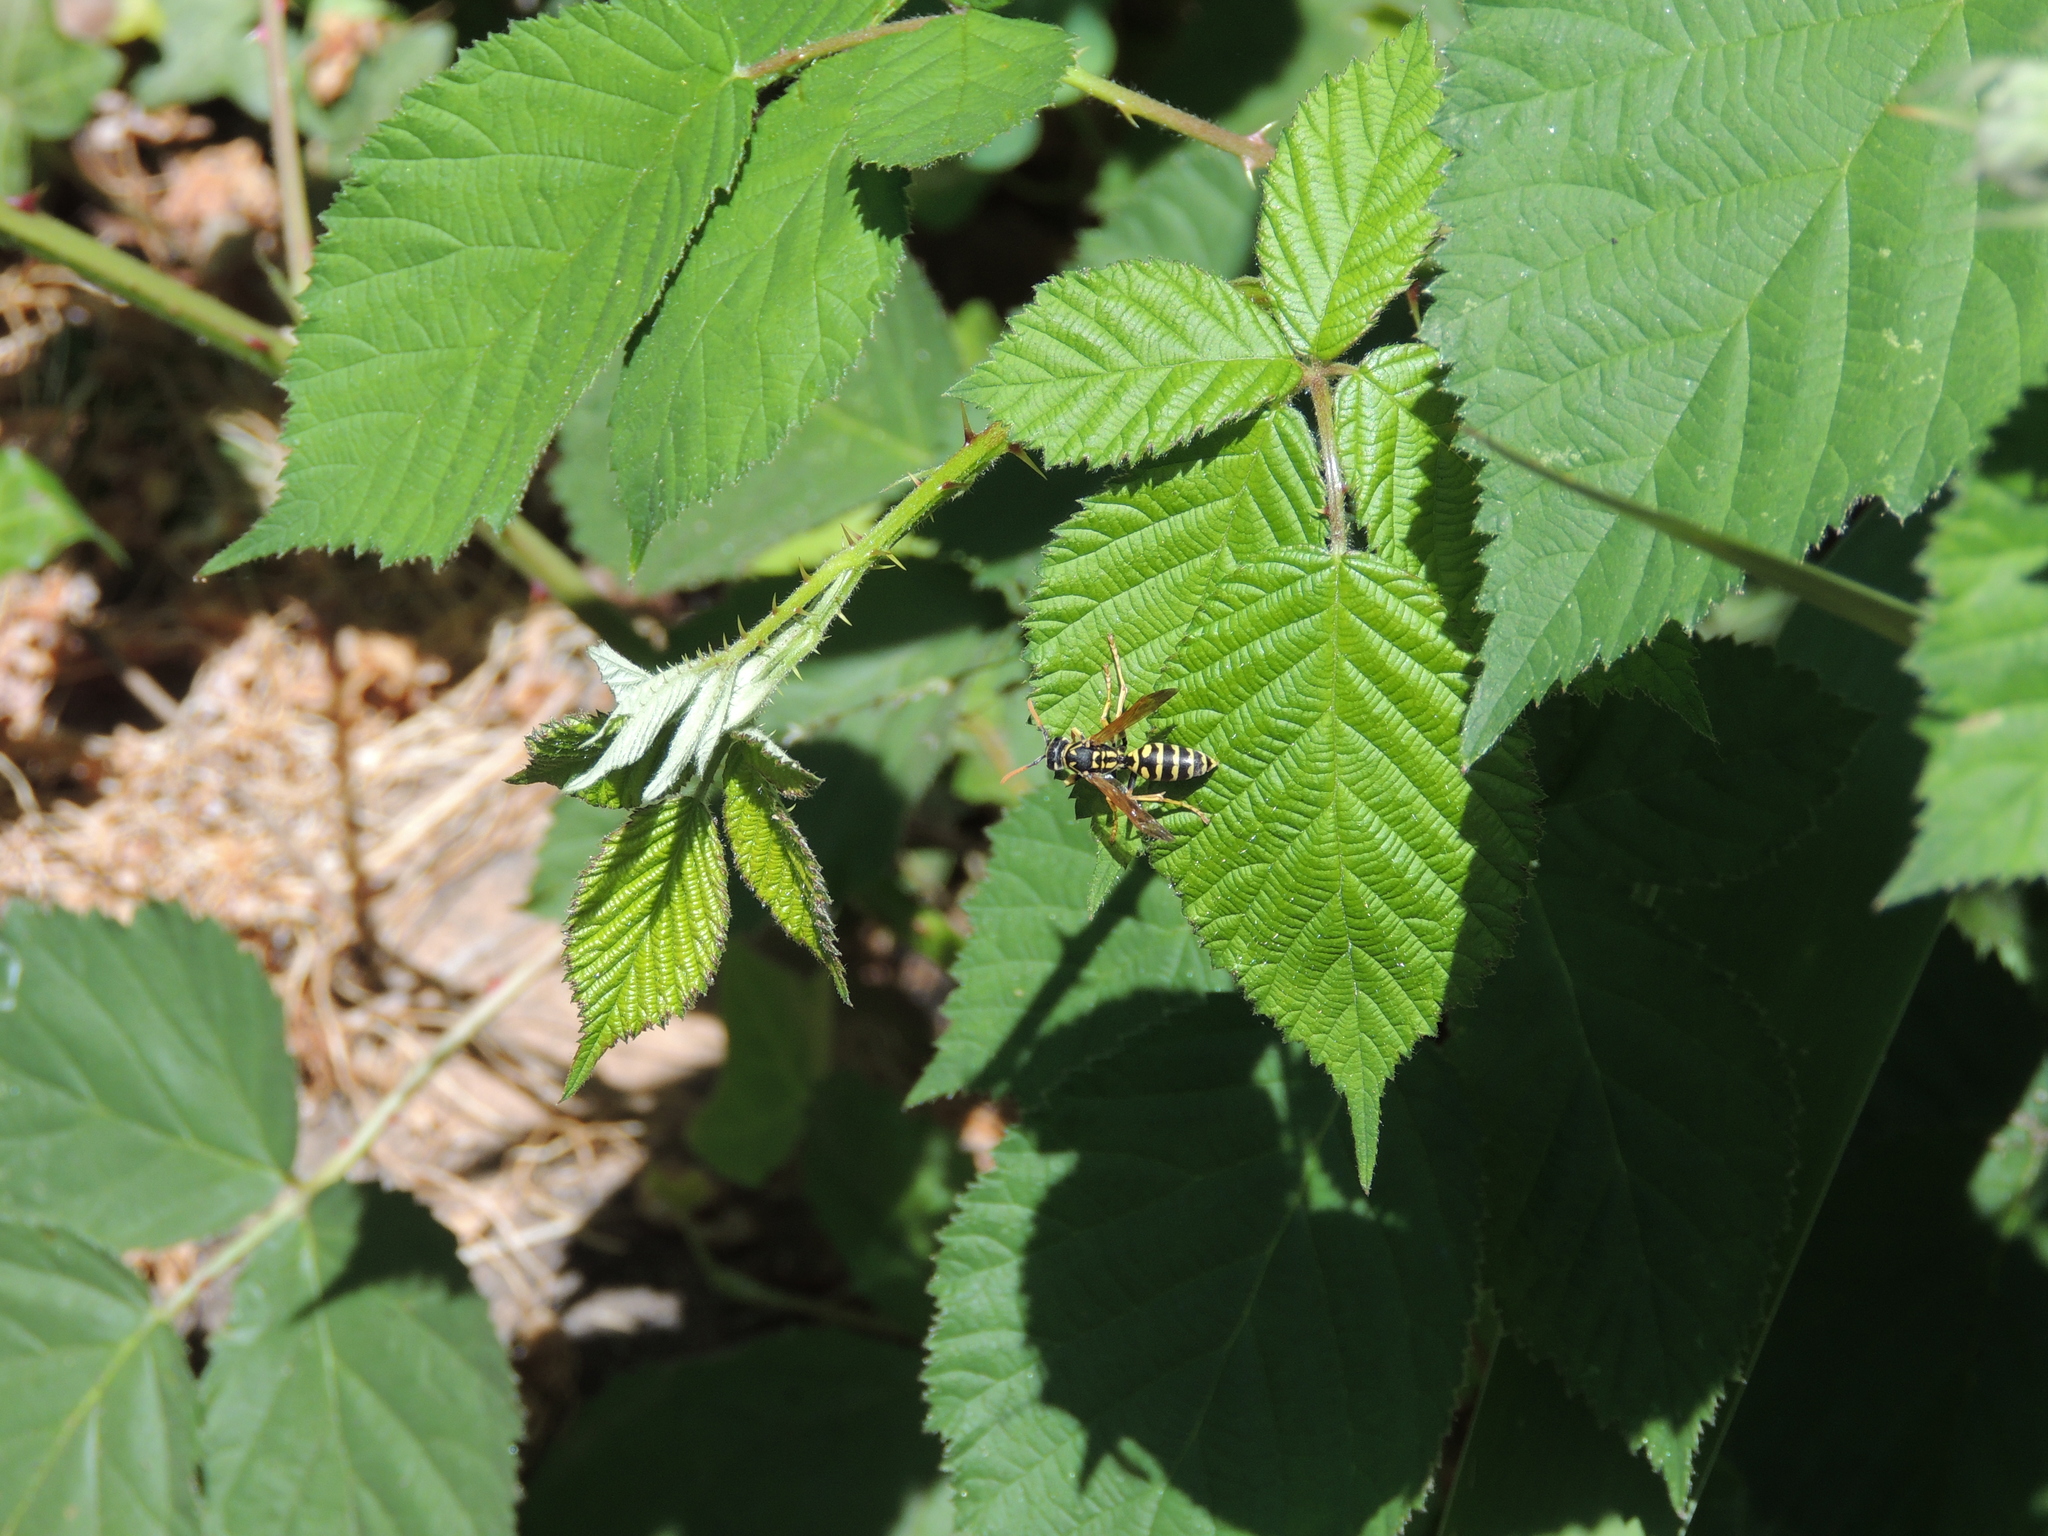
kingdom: Animalia
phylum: Arthropoda
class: Insecta
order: Hymenoptera
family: Eumenidae
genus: Polistes
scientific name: Polistes dominula
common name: Paper wasp
